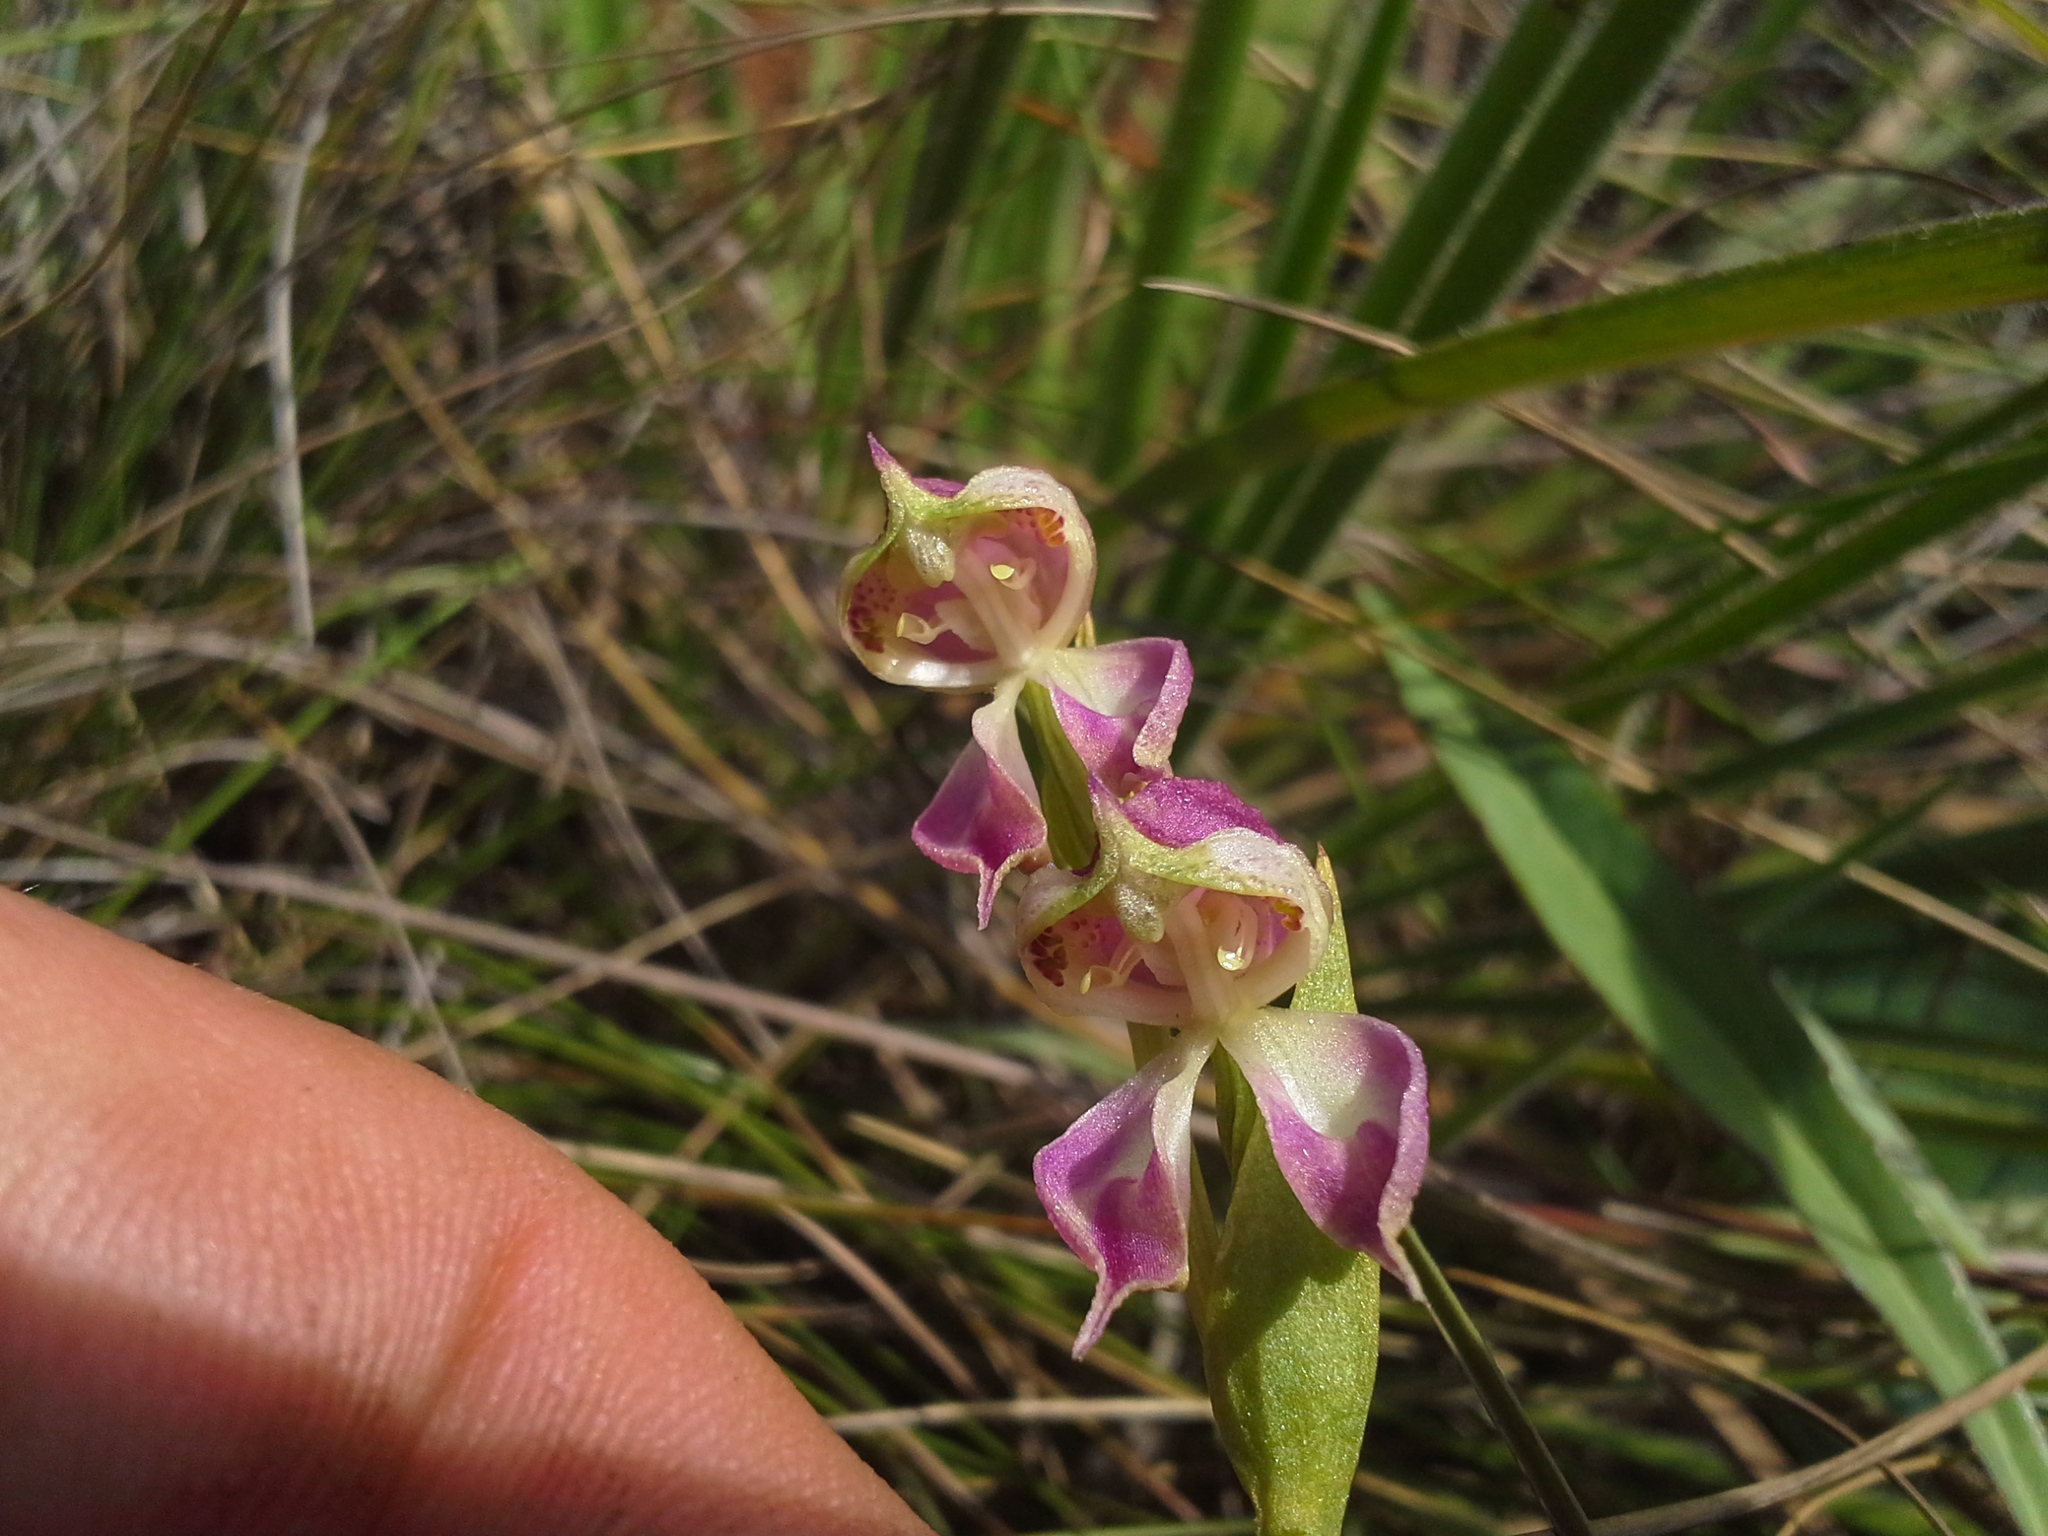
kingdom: Plantae
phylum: Tracheophyta
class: Liliopsida
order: Asparagales
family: Orchidaceae
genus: Disperis
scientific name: Disperis stenoplectron
